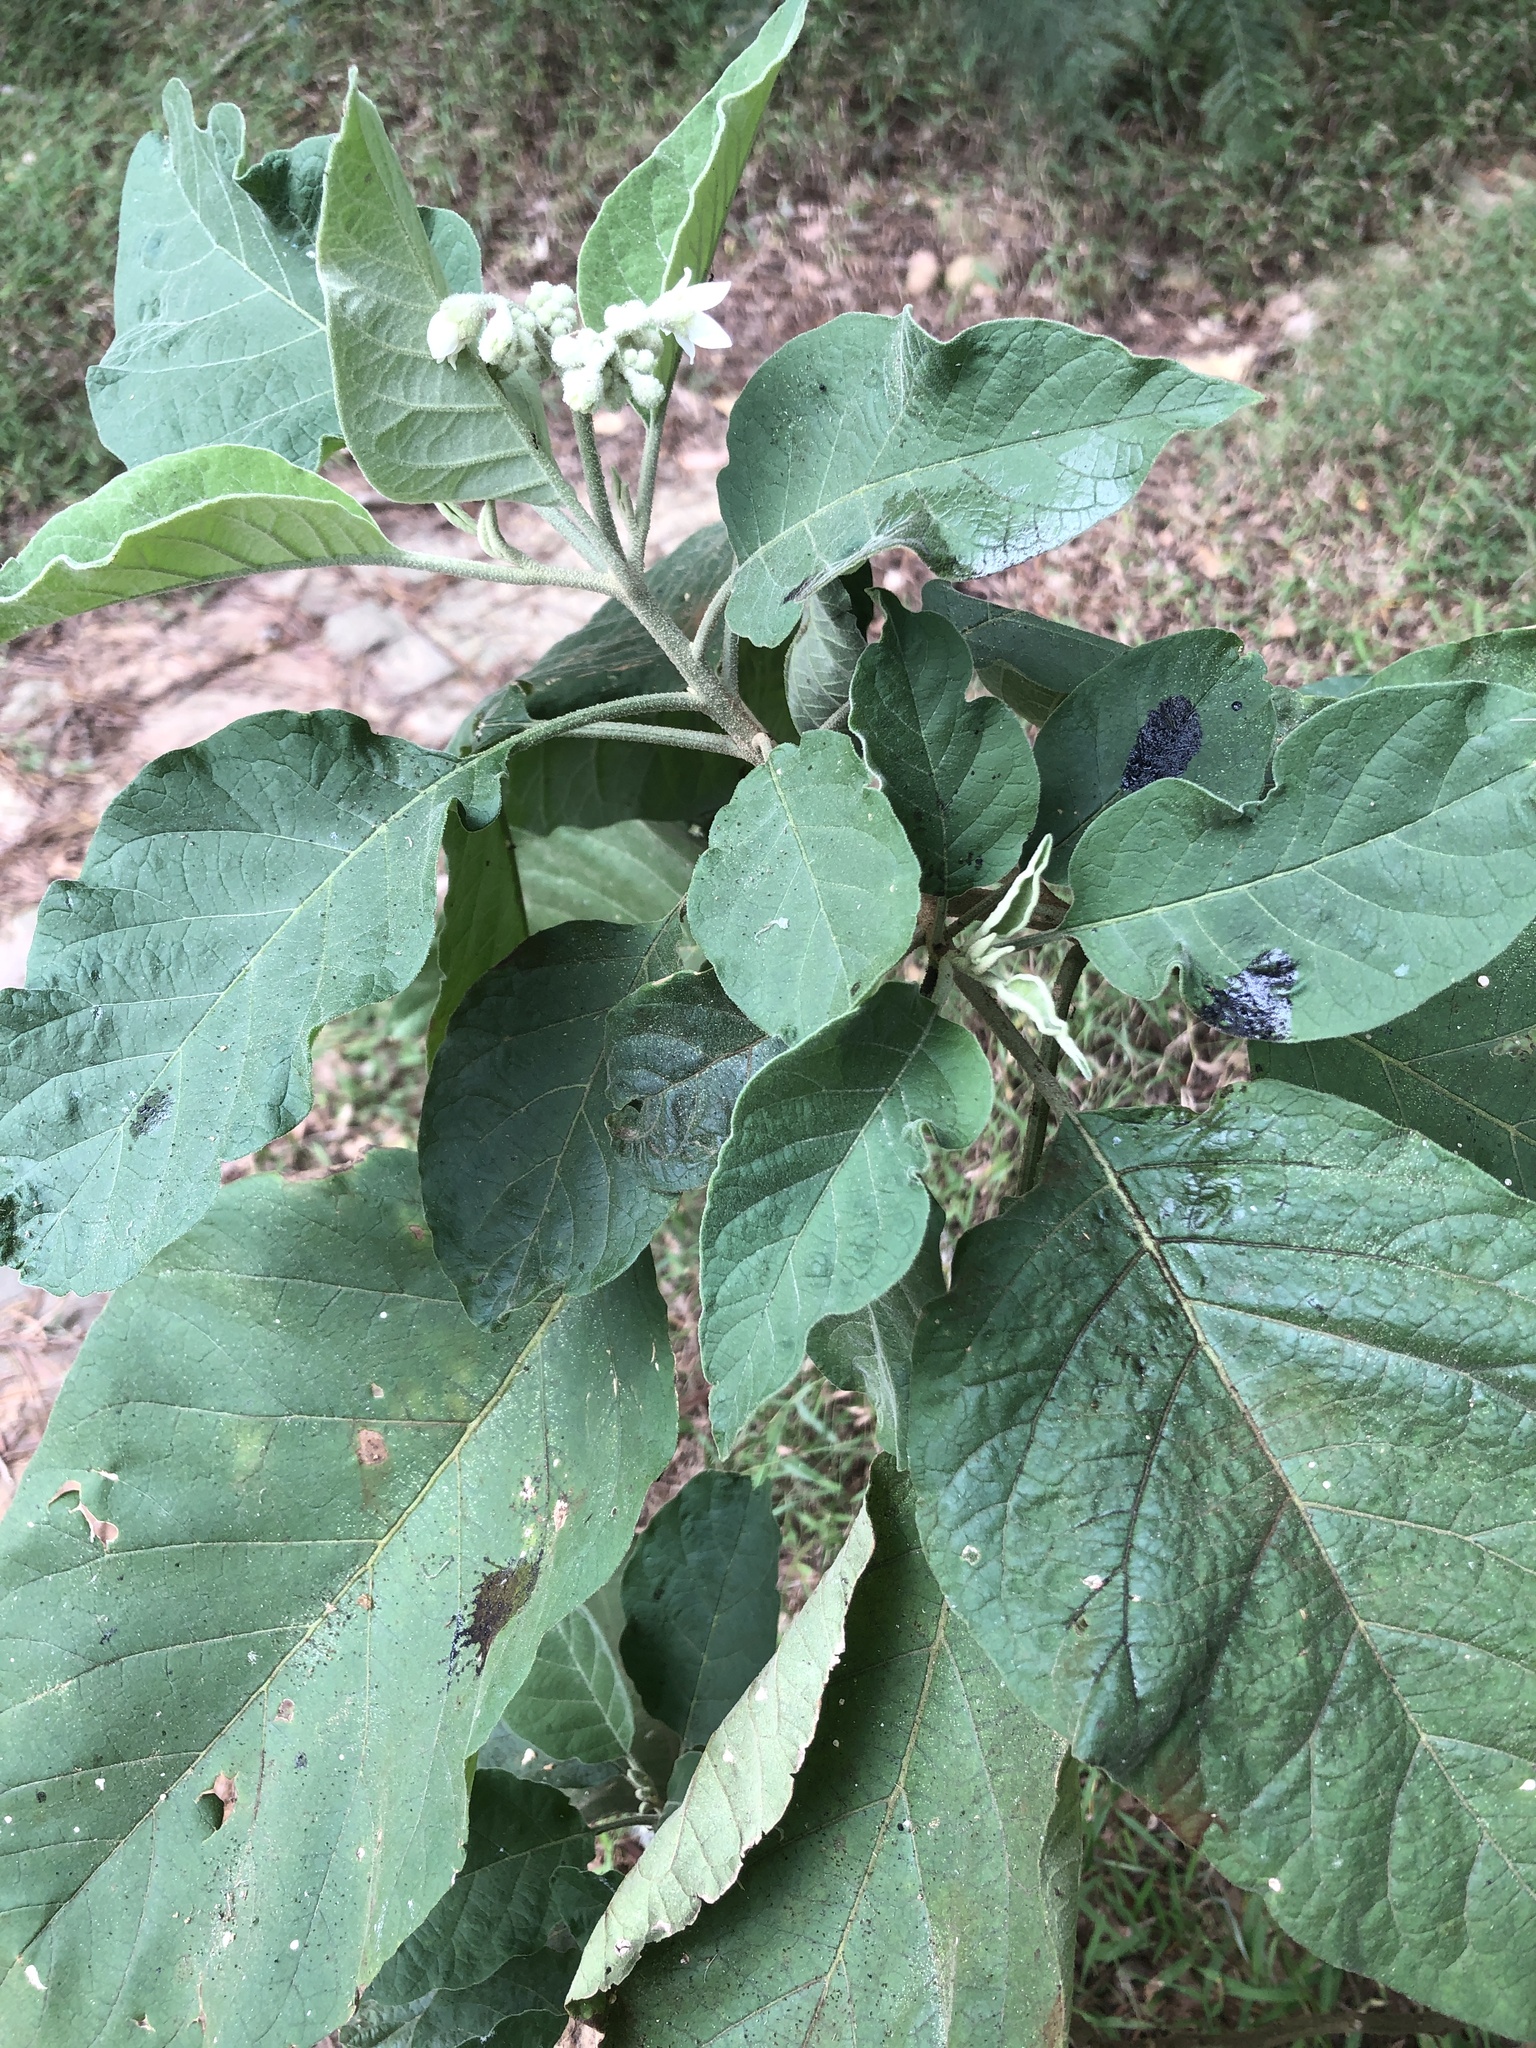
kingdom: Plantae
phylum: Tracheophyta
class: Magnoliopsida
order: Solanales
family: Solanaceae
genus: Solanum
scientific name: Solanum erianthum
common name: Tobacco-tree
